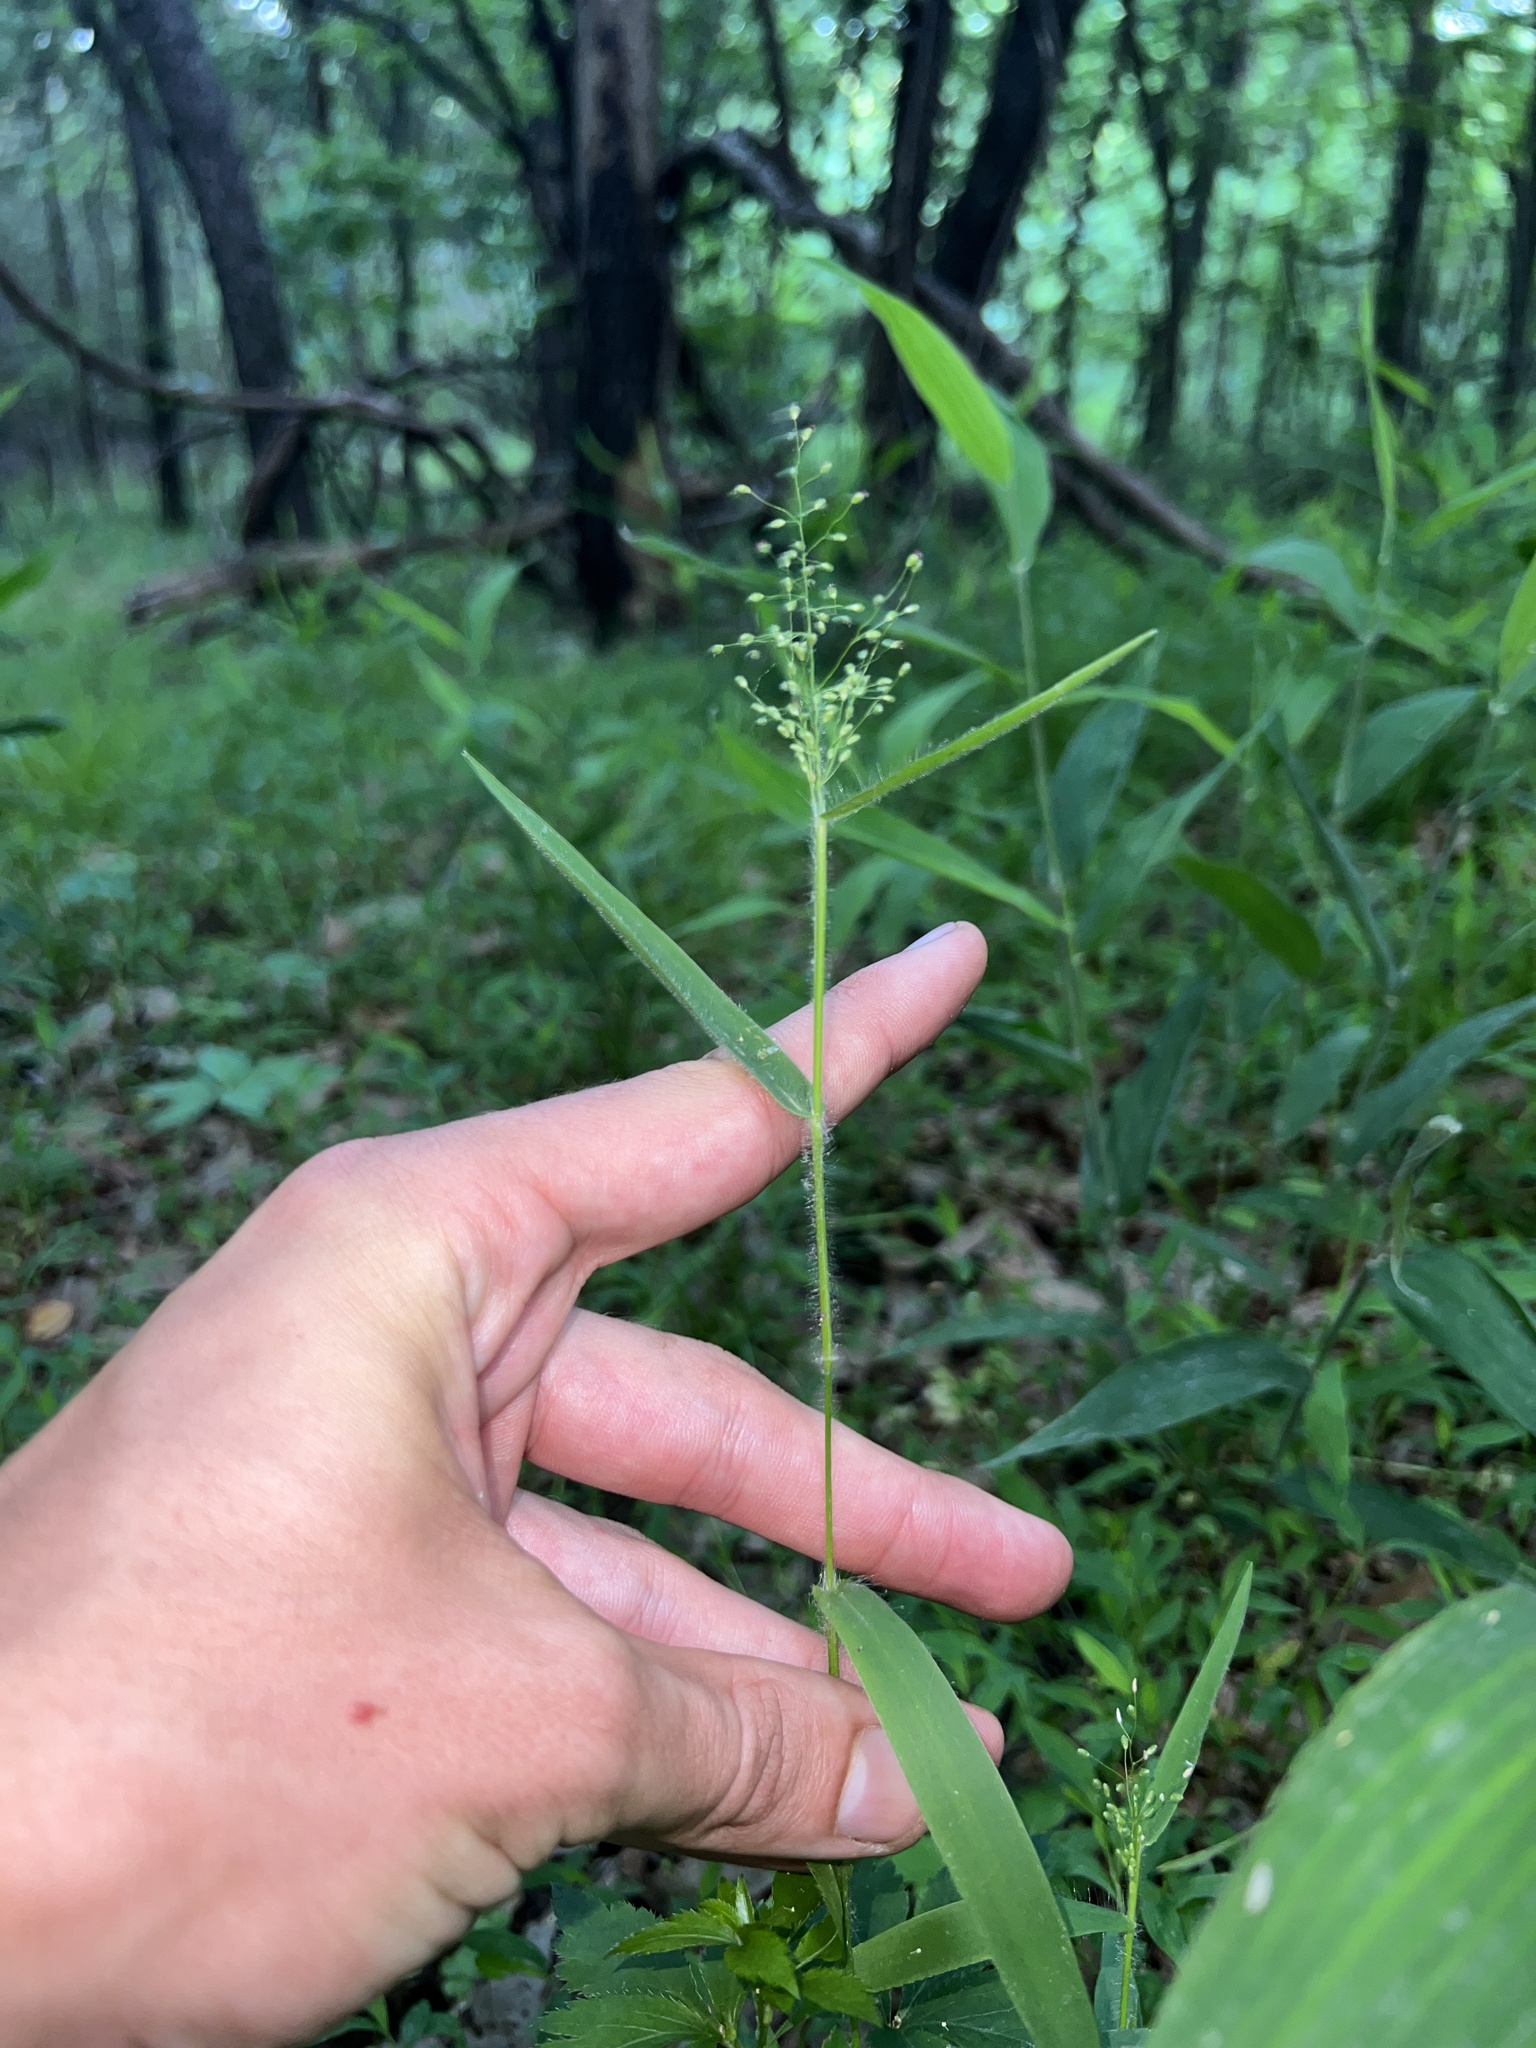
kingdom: Plantae
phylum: Tracheophyta
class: Liliopsida
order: Poales
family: Poaceae
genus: Dichanthelium
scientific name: Dichanthelium lanuginosum
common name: Woolly panicgrass
